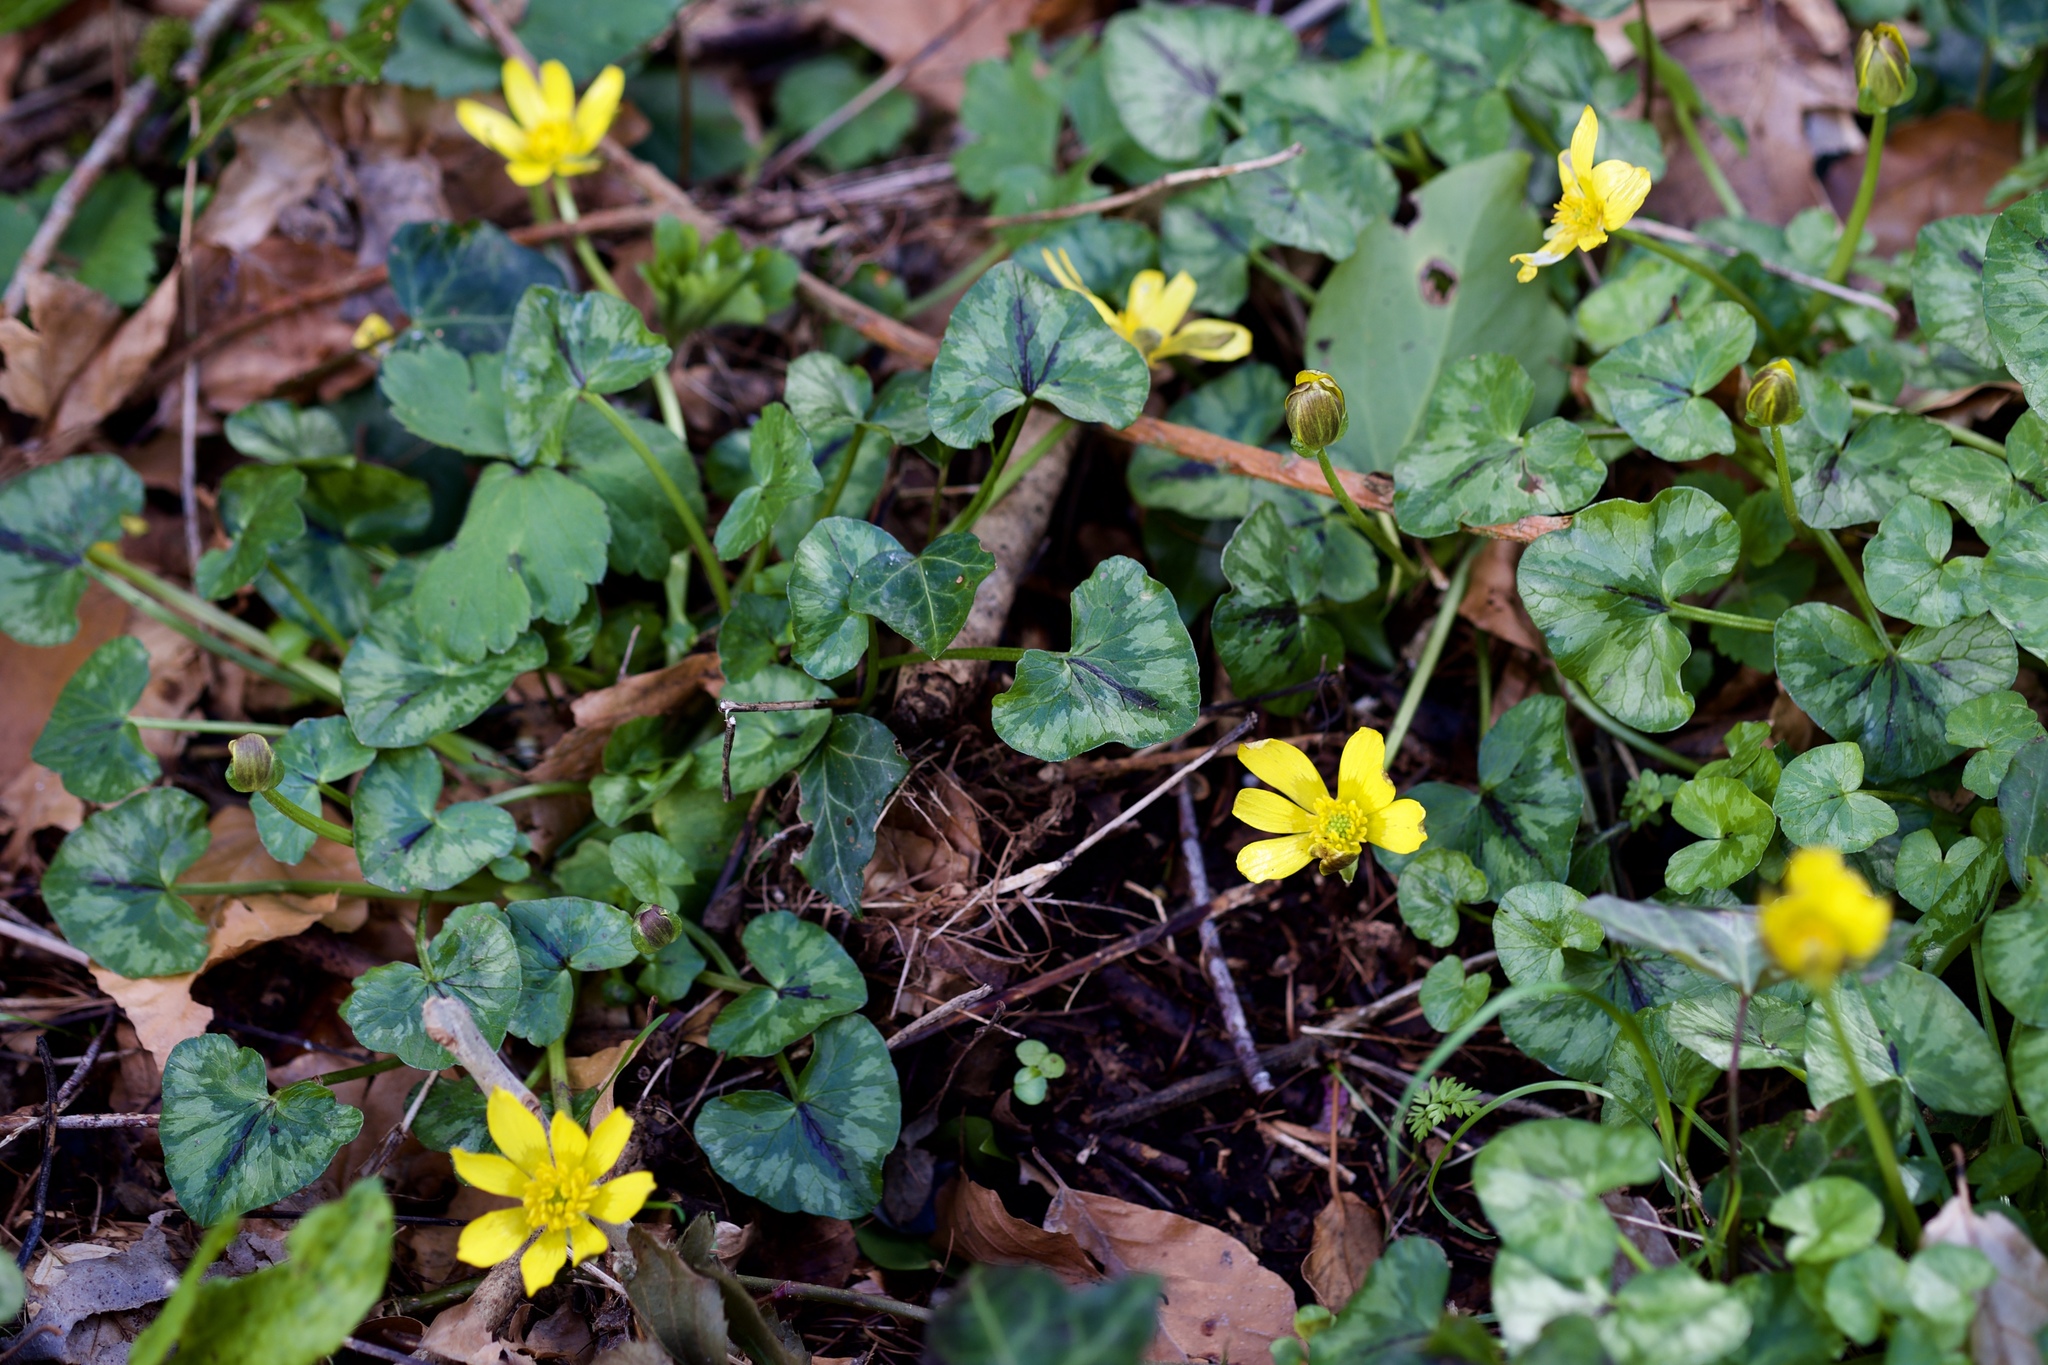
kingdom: Plantae
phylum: Tracheophyta
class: Magnoliopsida
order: Ranunculales
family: Ranunculaceae
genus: Ficaria
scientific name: Ficaria verna
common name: Lesser celandine
